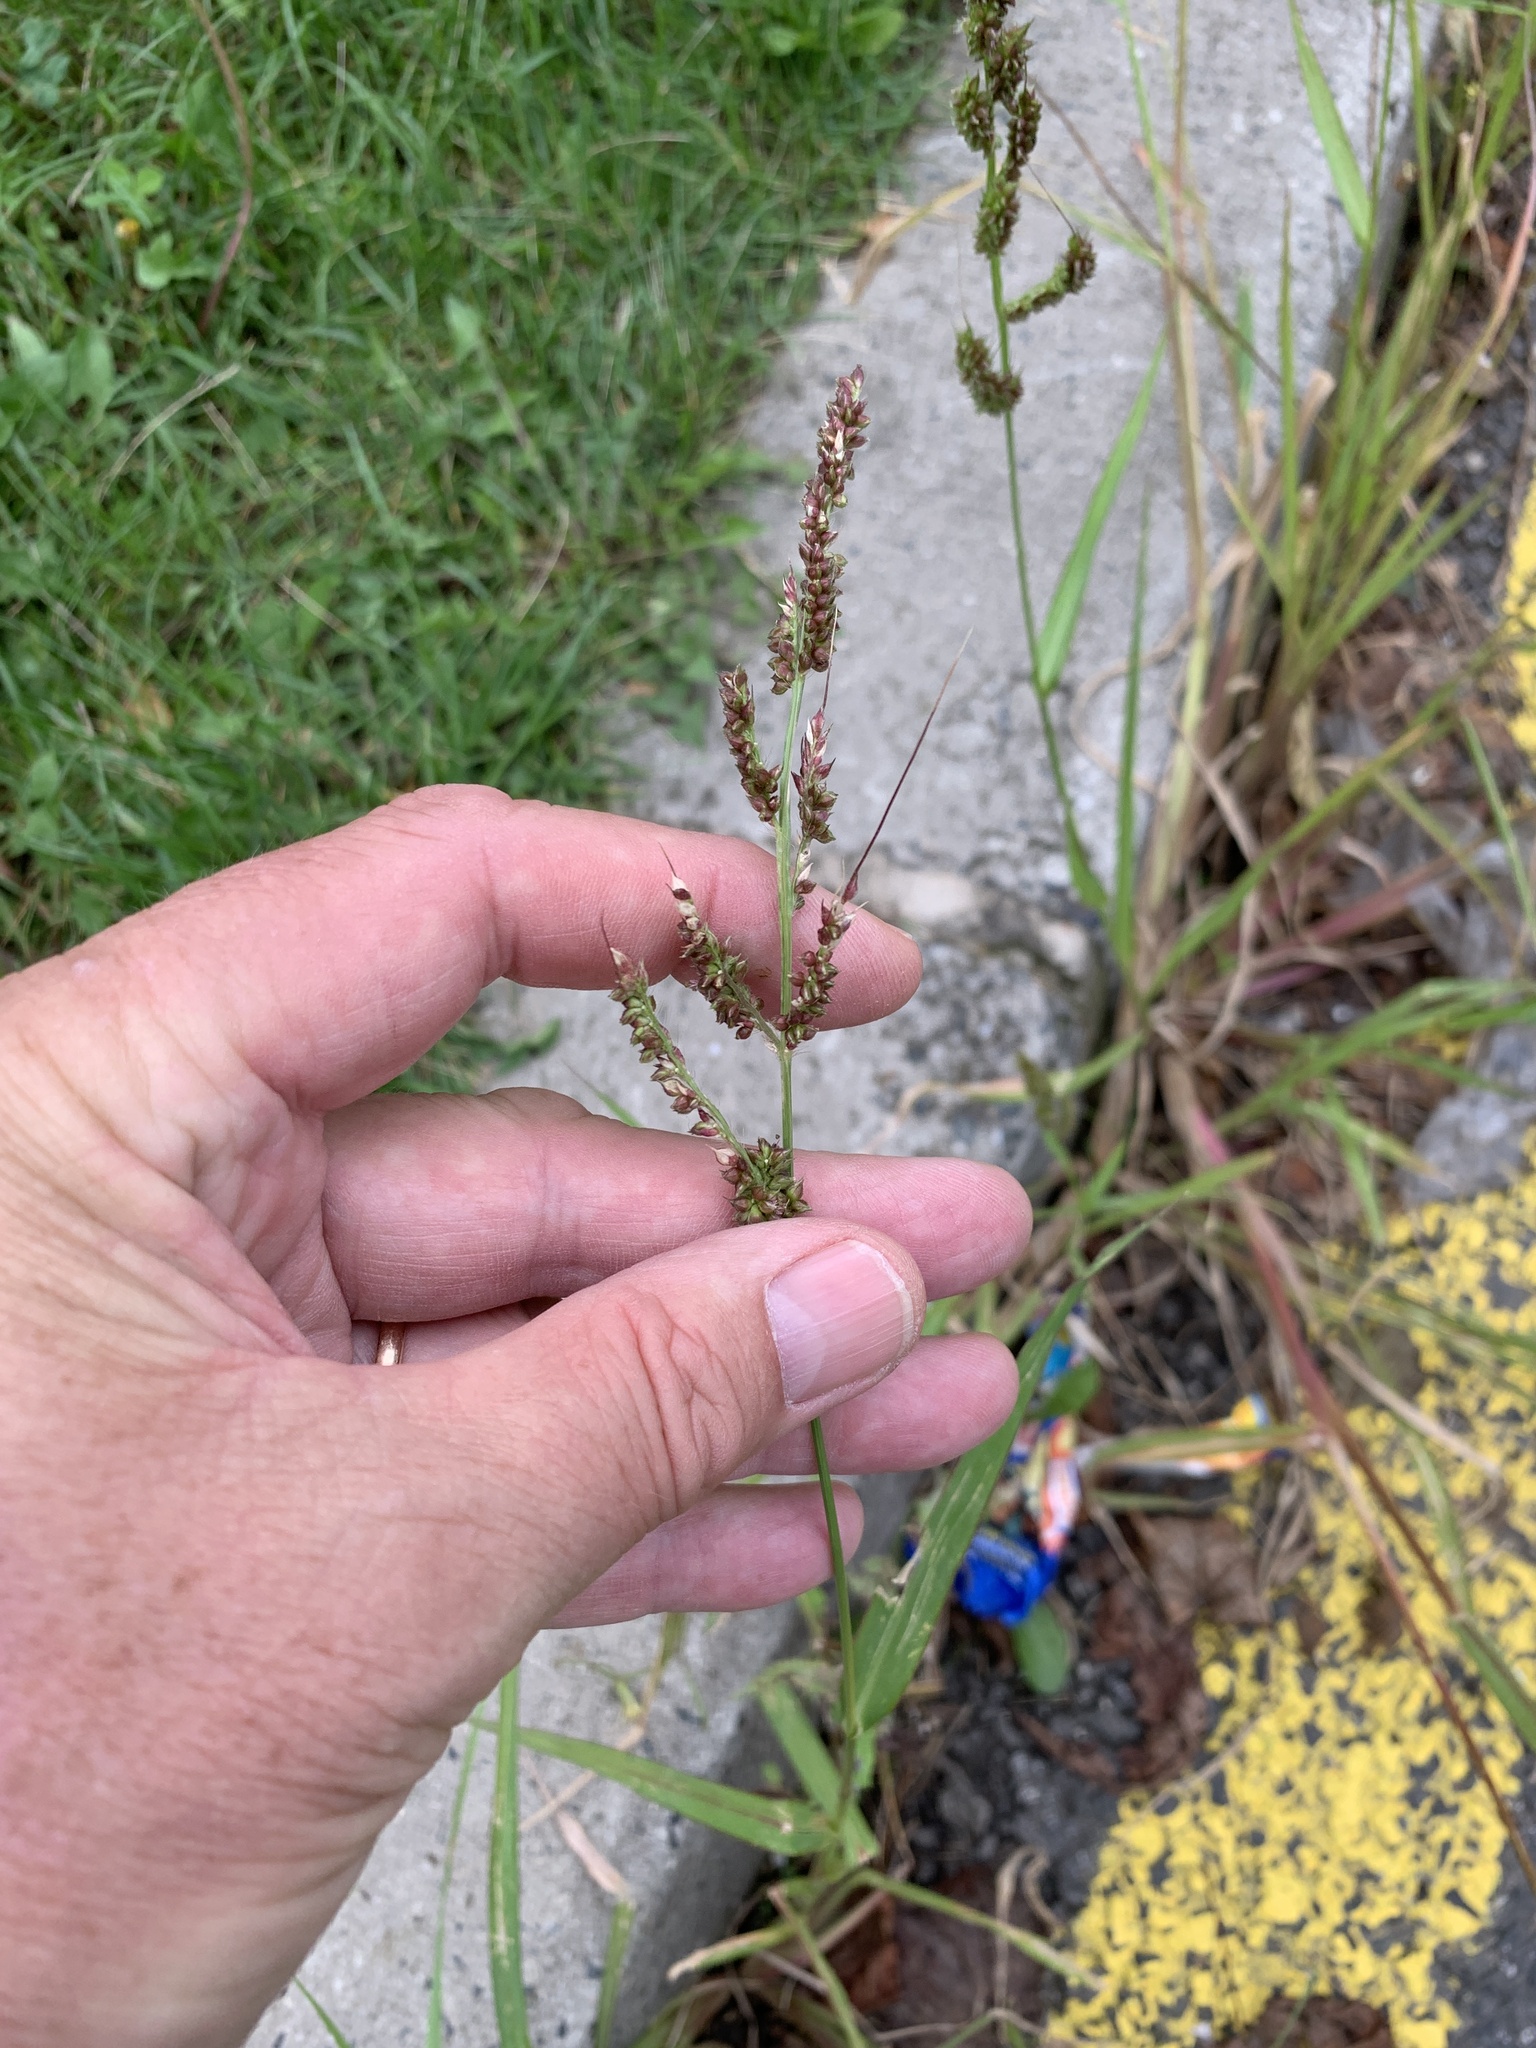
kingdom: Plantae
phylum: Tracheophyta
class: Liliopsida
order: Poales
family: Poaceae
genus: Echinochloa
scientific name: Echinochloa crus-galli
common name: Cockspur
